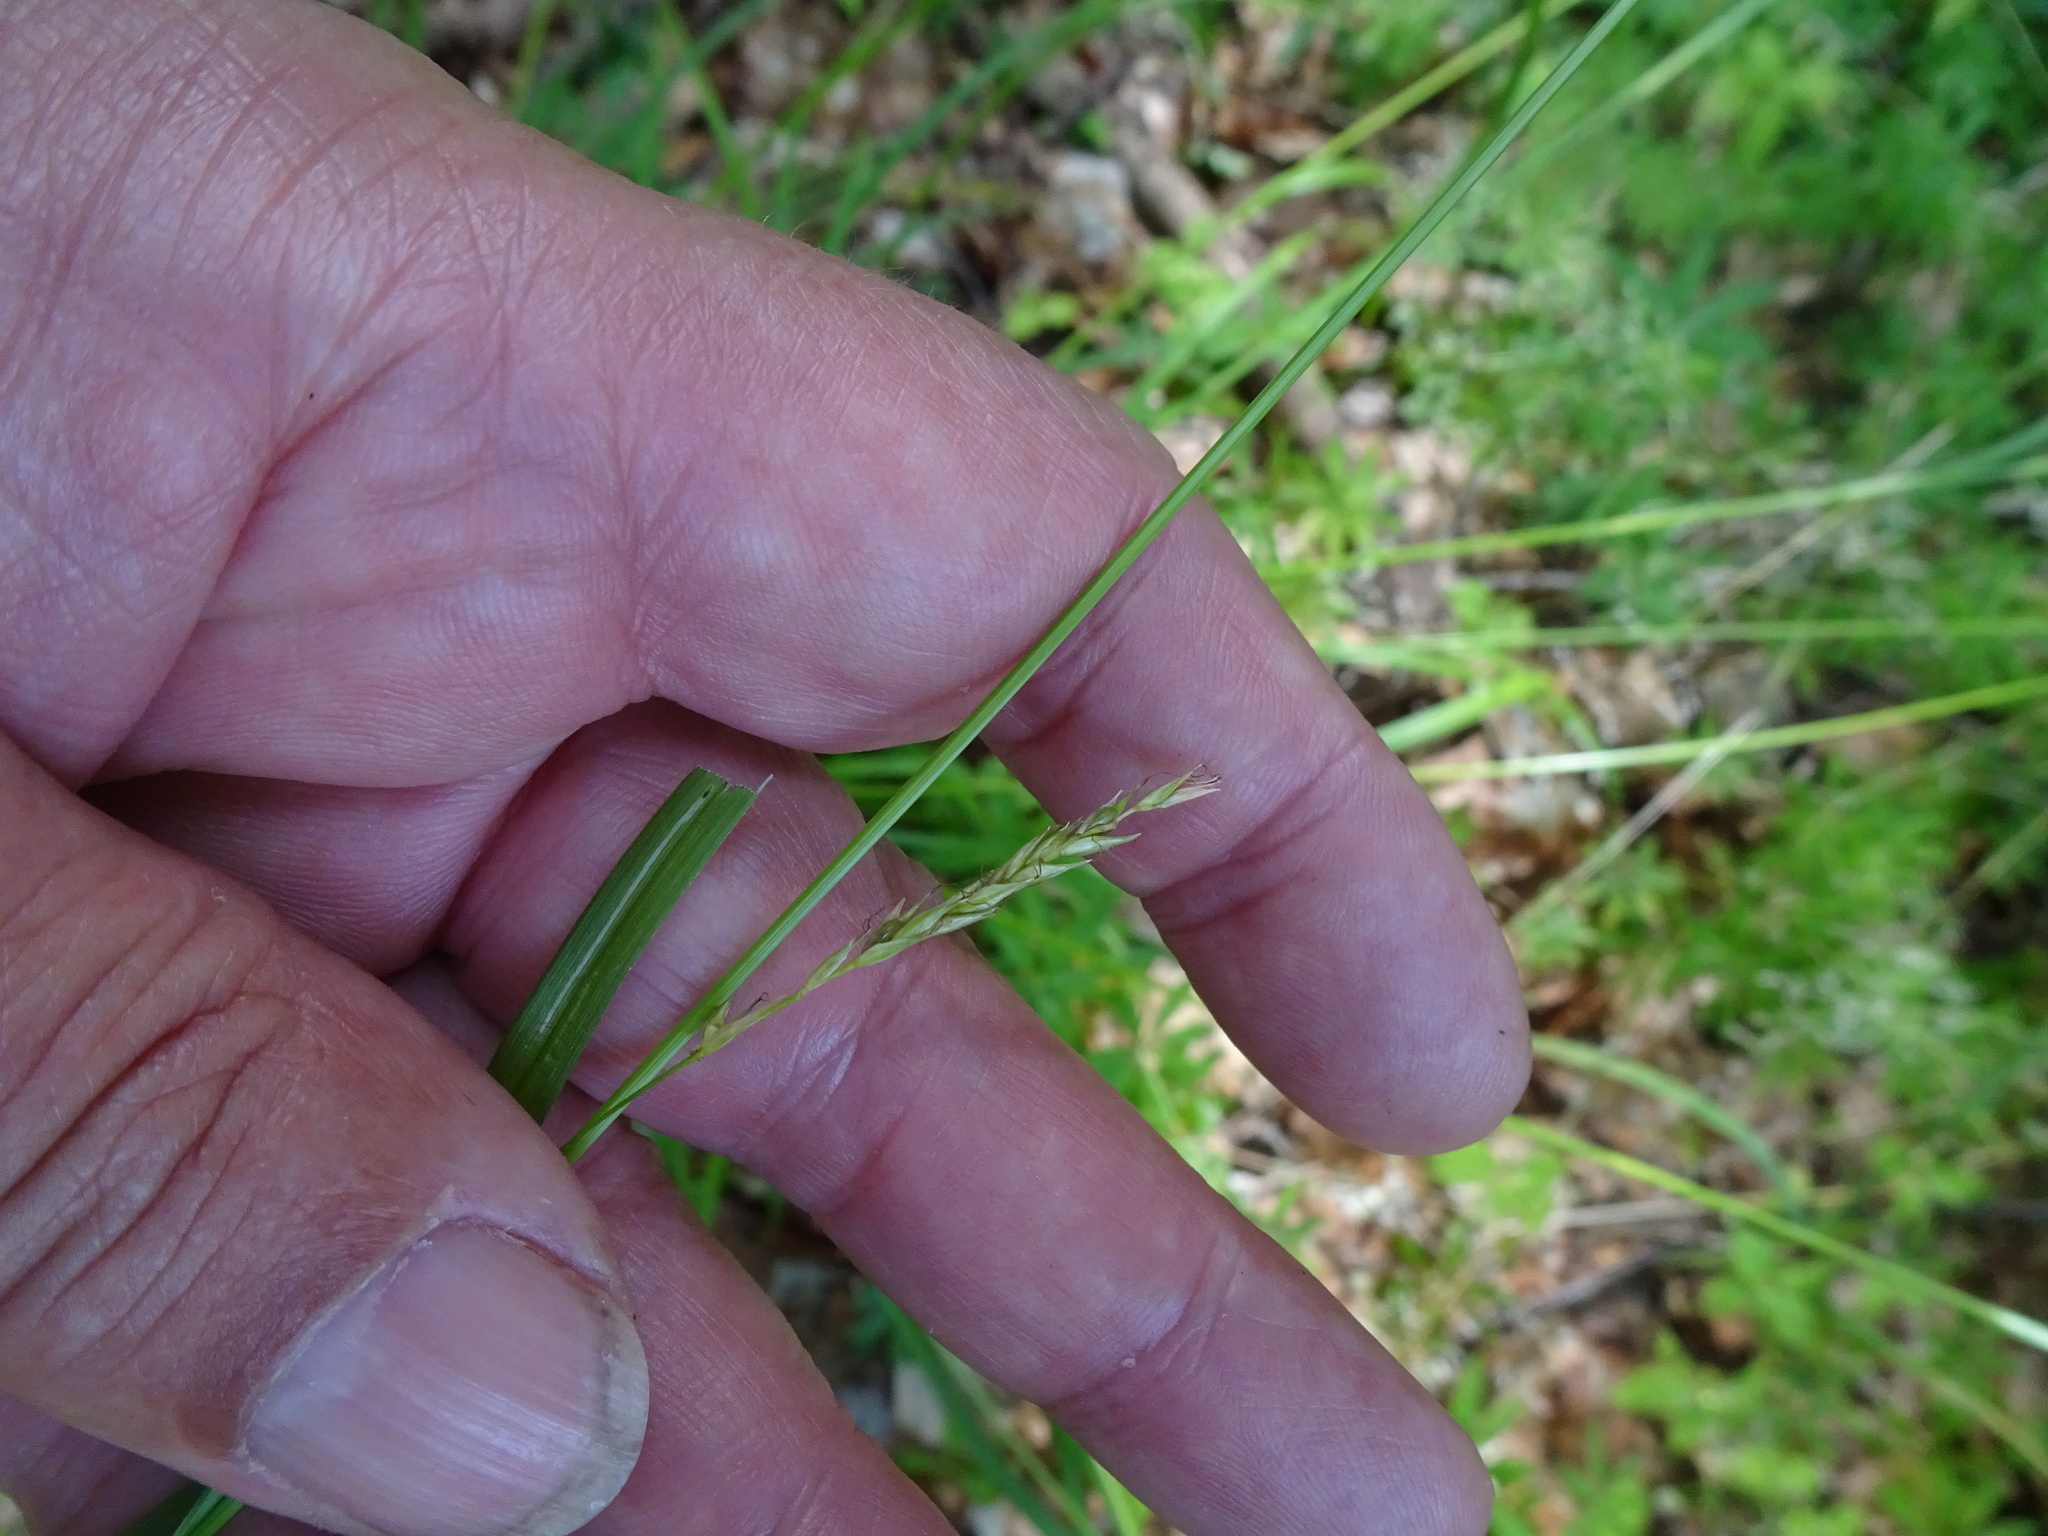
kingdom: Plantae
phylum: Tracheophyta
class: Liliopsida
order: Poales
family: Cyperaceae
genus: Carex
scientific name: Carex sylvatica
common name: Wood-sedge
